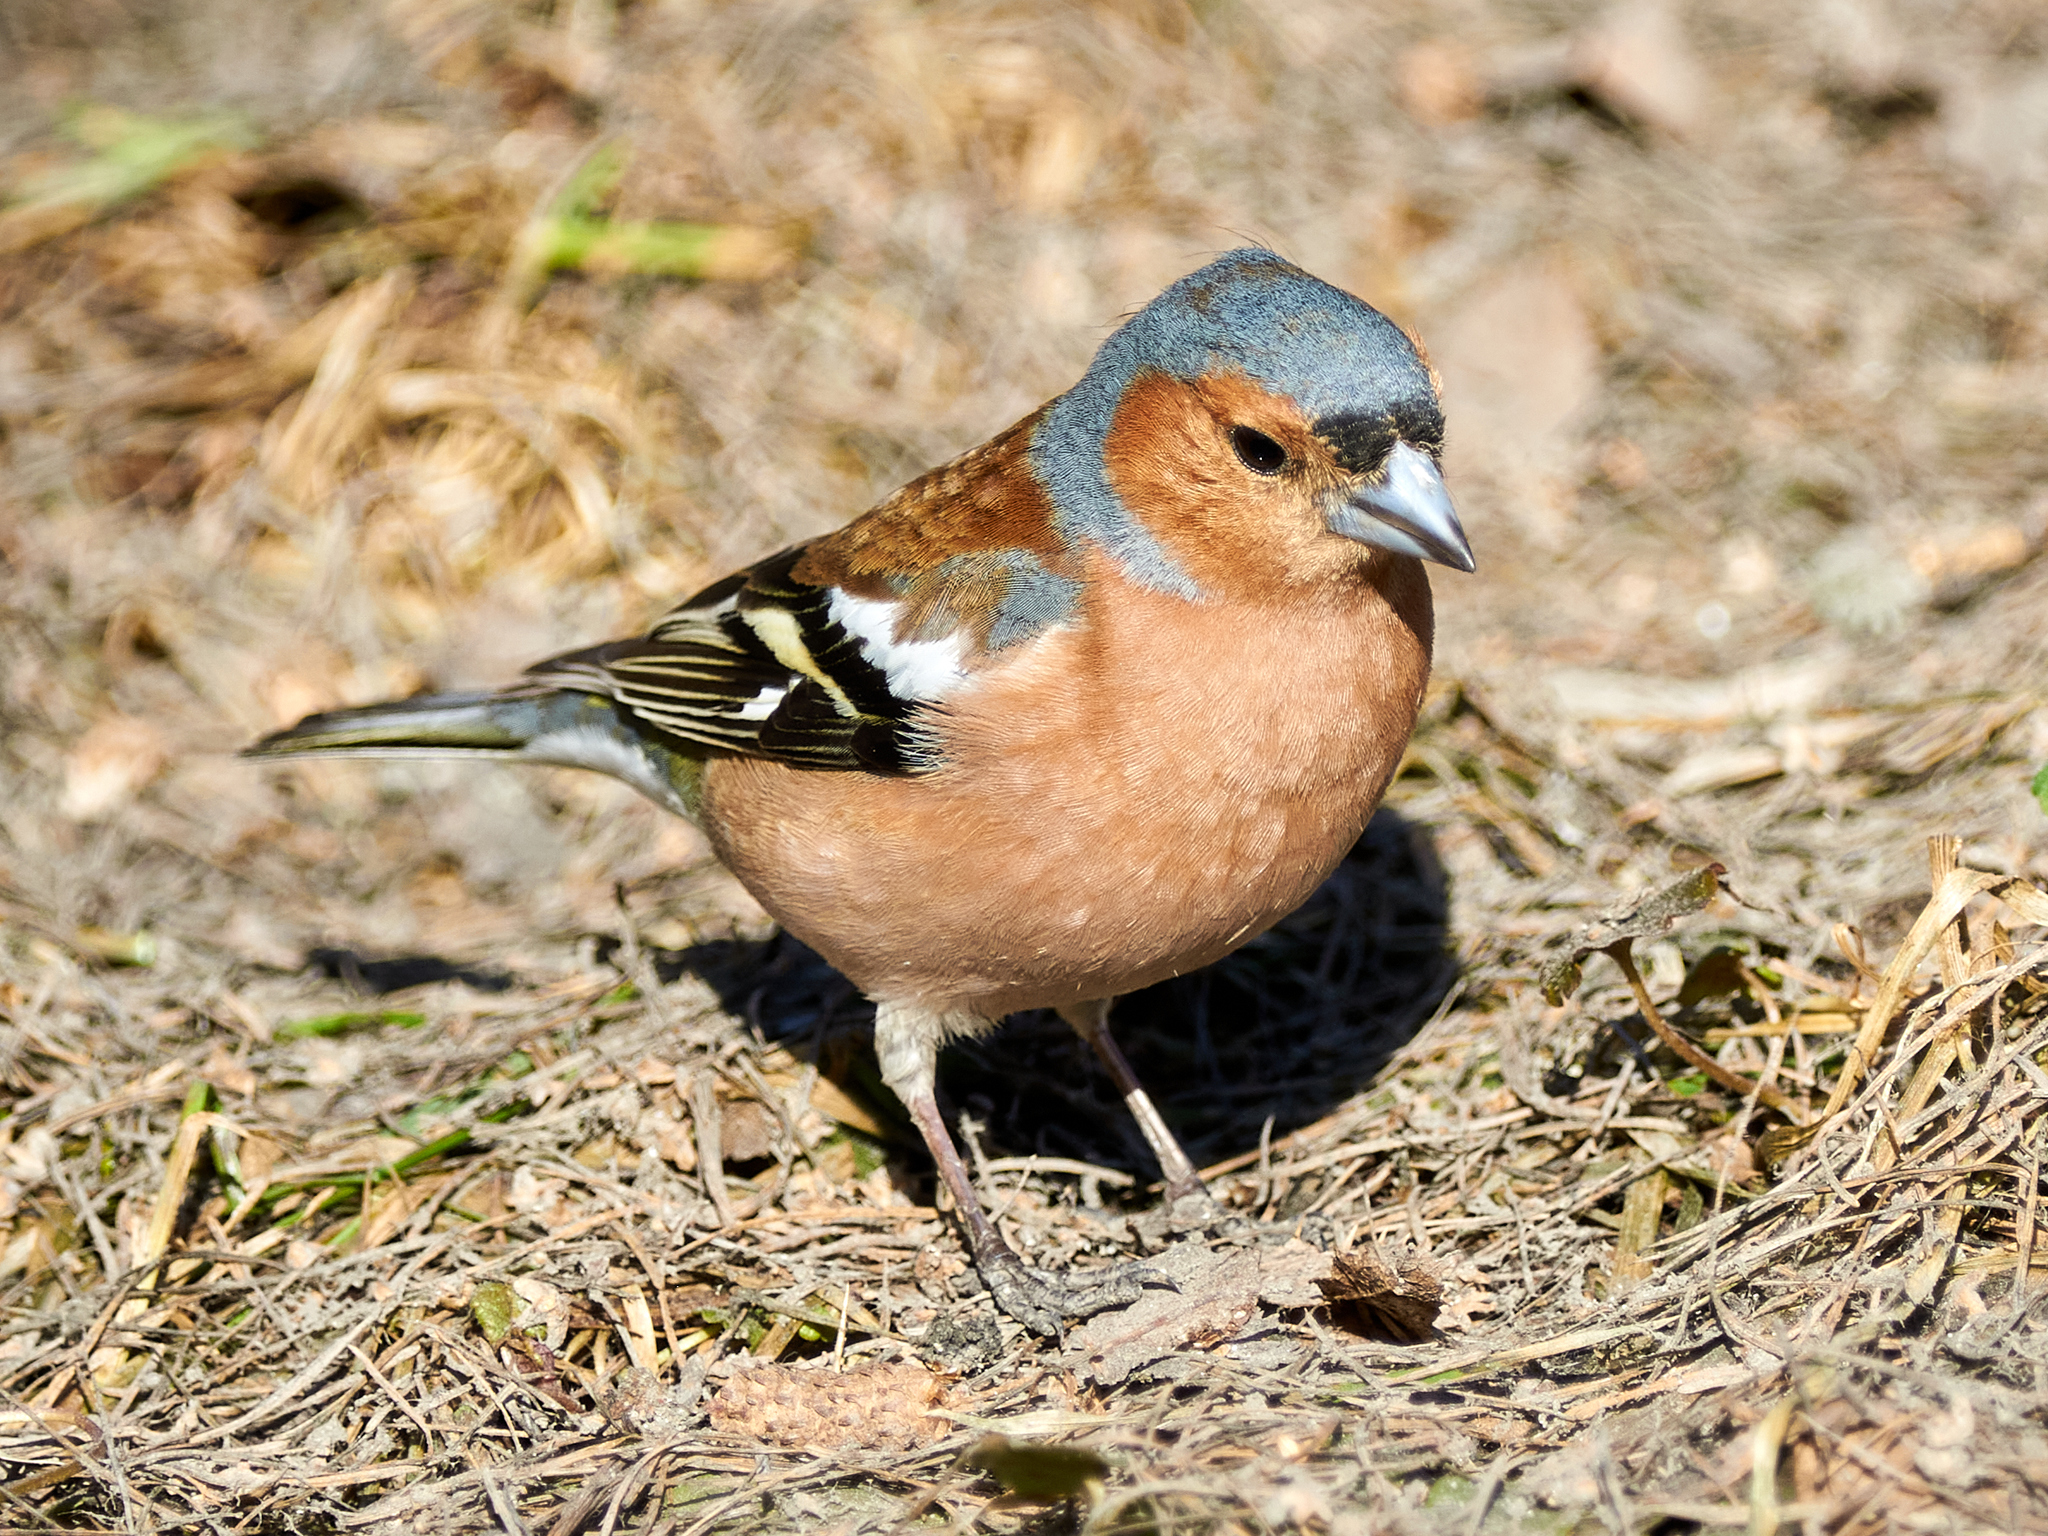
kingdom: Animalia
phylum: Chordata
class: Aves
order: Passeriformes
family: Fringillidae
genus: Fringilla
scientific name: Fringilla coelebs
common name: Common chaffinch
